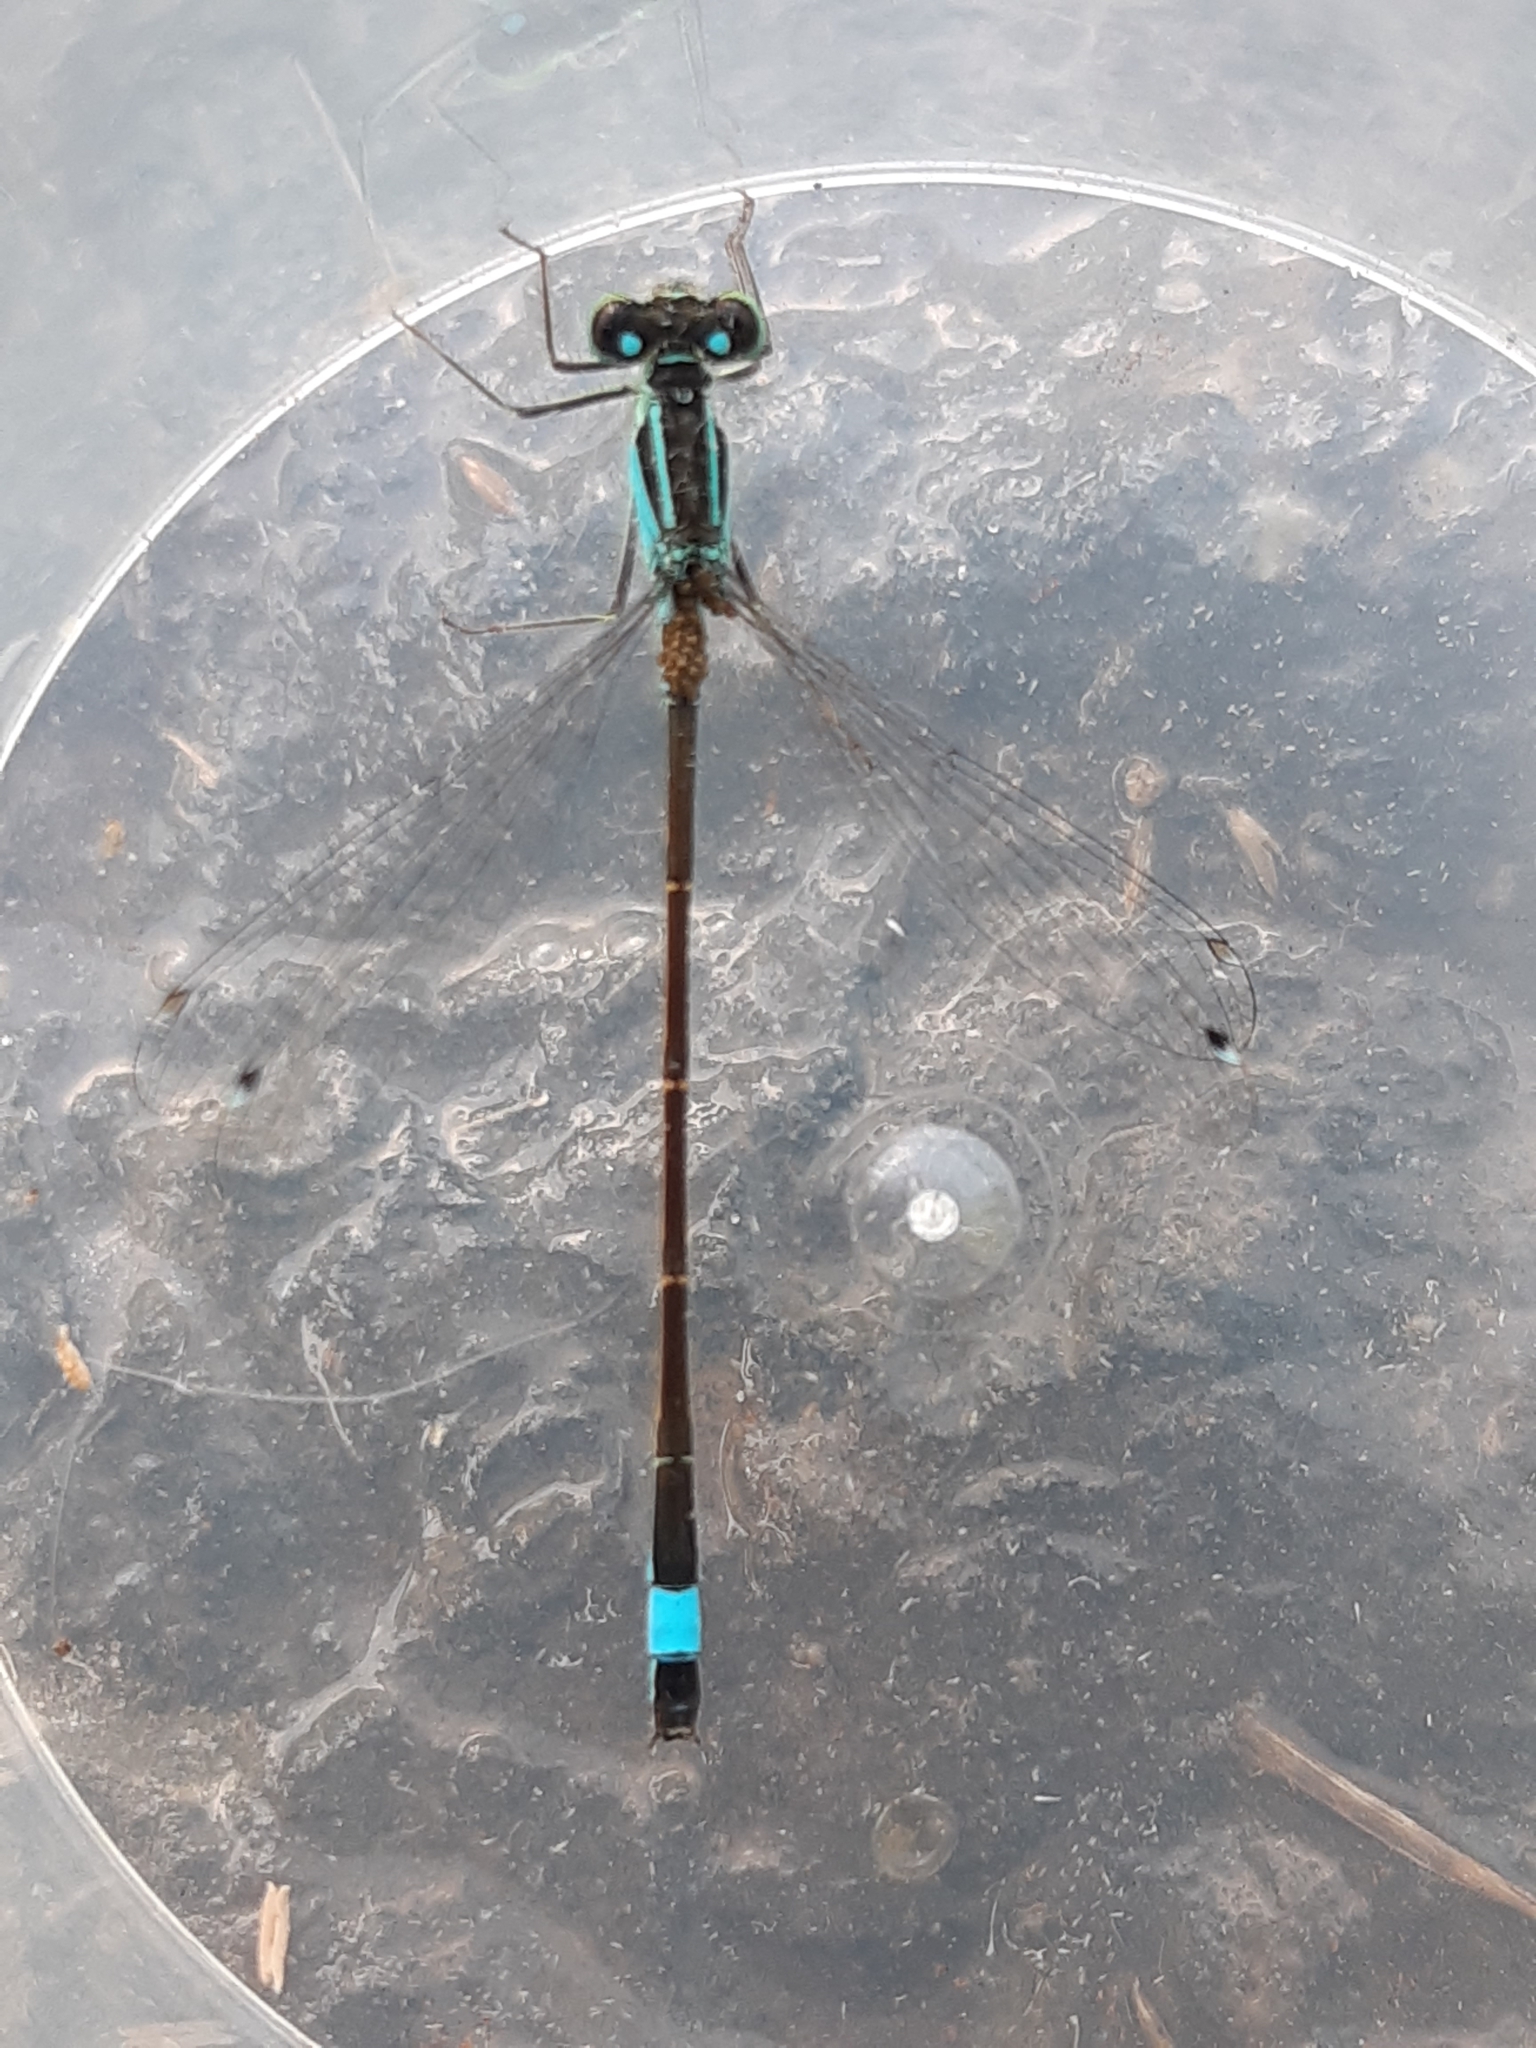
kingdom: Animalia
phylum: Arthropoda
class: Insecta
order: Odonata
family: Coenagrionidae
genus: Ischnura
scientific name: Ischnura elegans
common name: Blue-tailed damselfly
